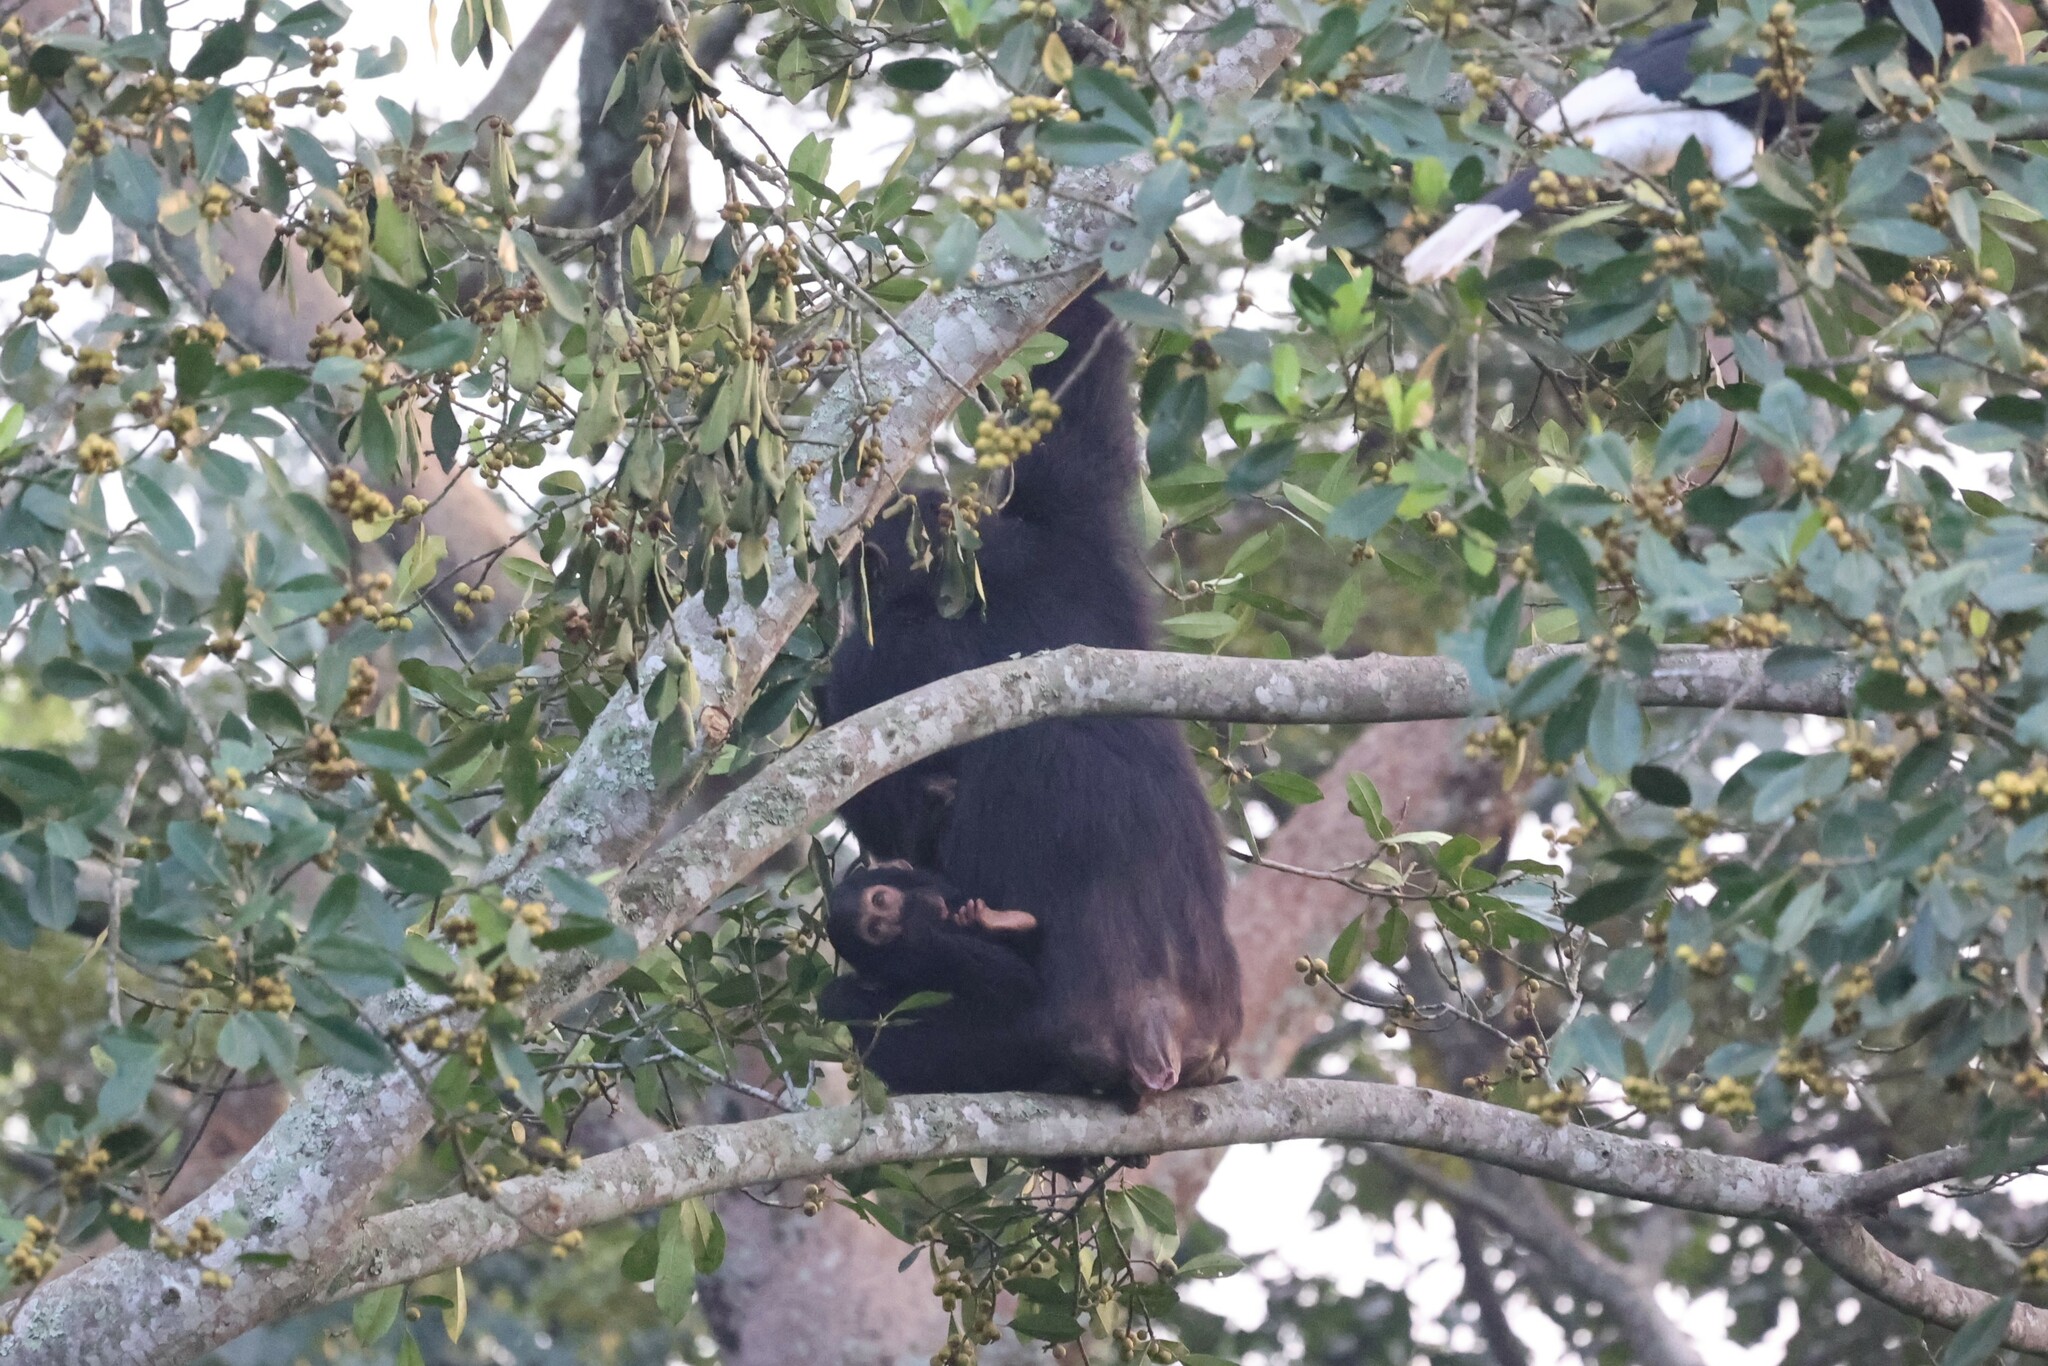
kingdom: Animalia
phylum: Chordata
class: Mammalia
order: Primates
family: Hominidae
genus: Pan
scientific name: Pan troglodytes
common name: Chimpanzee
